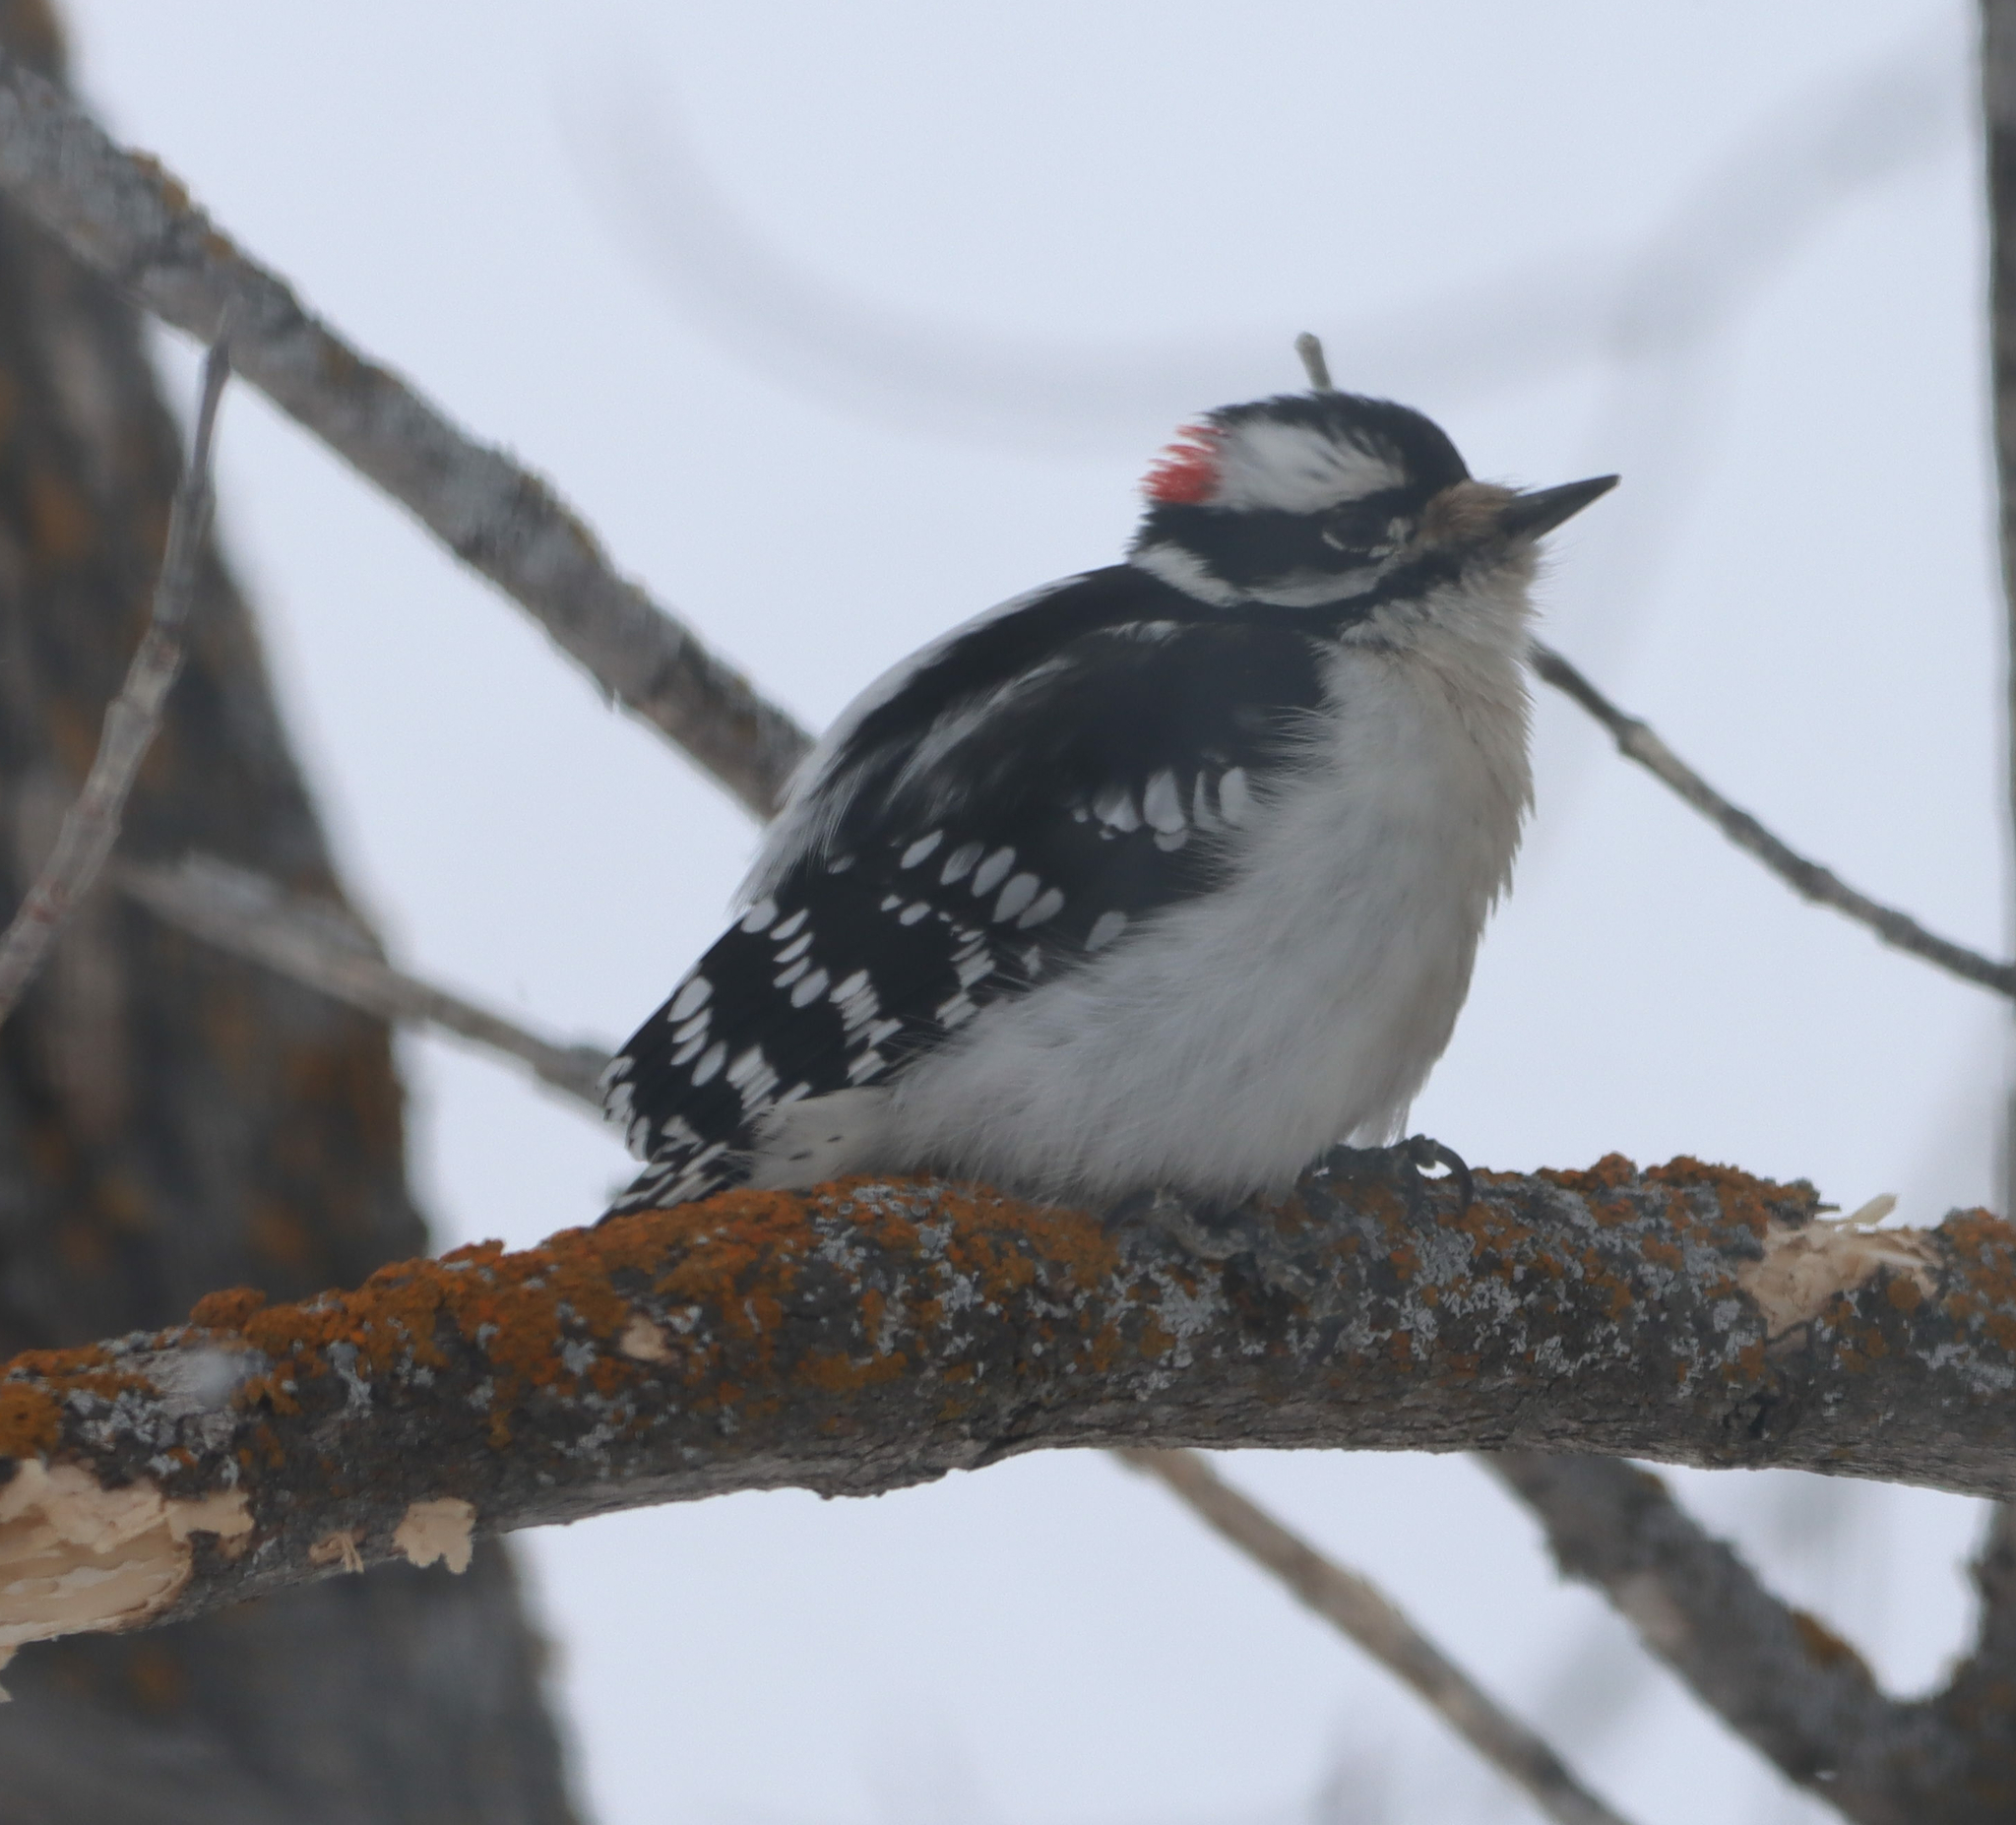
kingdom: Animalia
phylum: Chordata
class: Aves
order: Piciformes
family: Picidae
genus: Dryobates
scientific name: Dryobates pubescens
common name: Downy woodpecker
